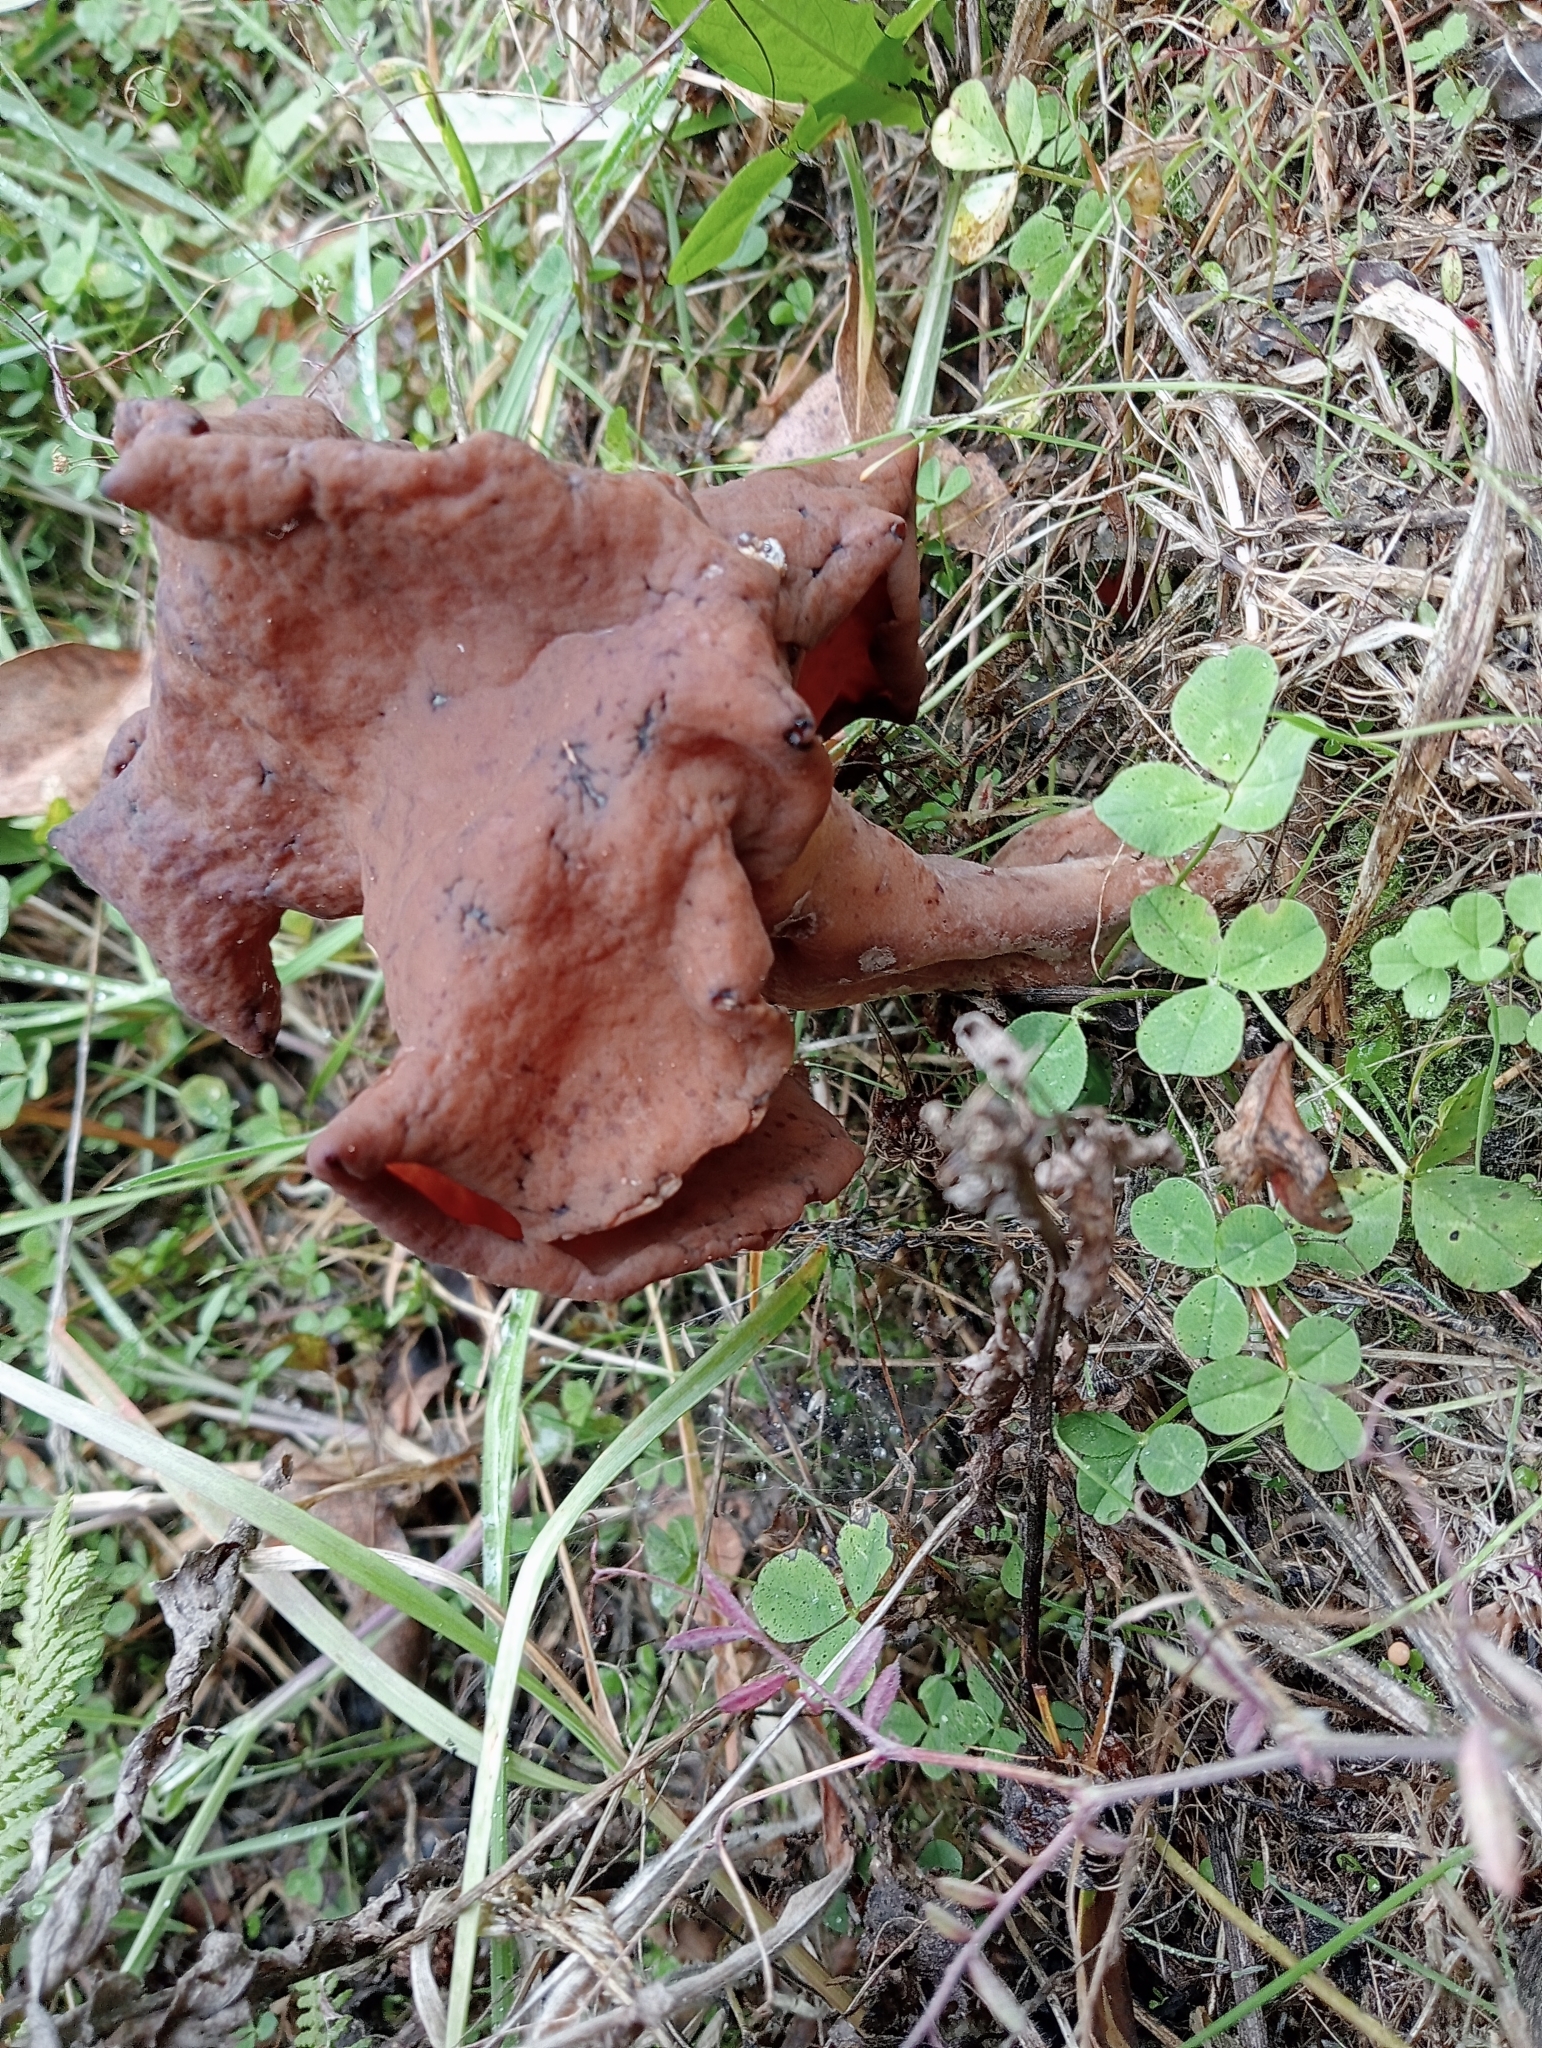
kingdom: Fungi
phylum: Ascomycota
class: Pezizomycetes
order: Pezizales
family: Discinaceae
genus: Gyromitra
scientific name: Gyromitra infula
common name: Pouched false morel
